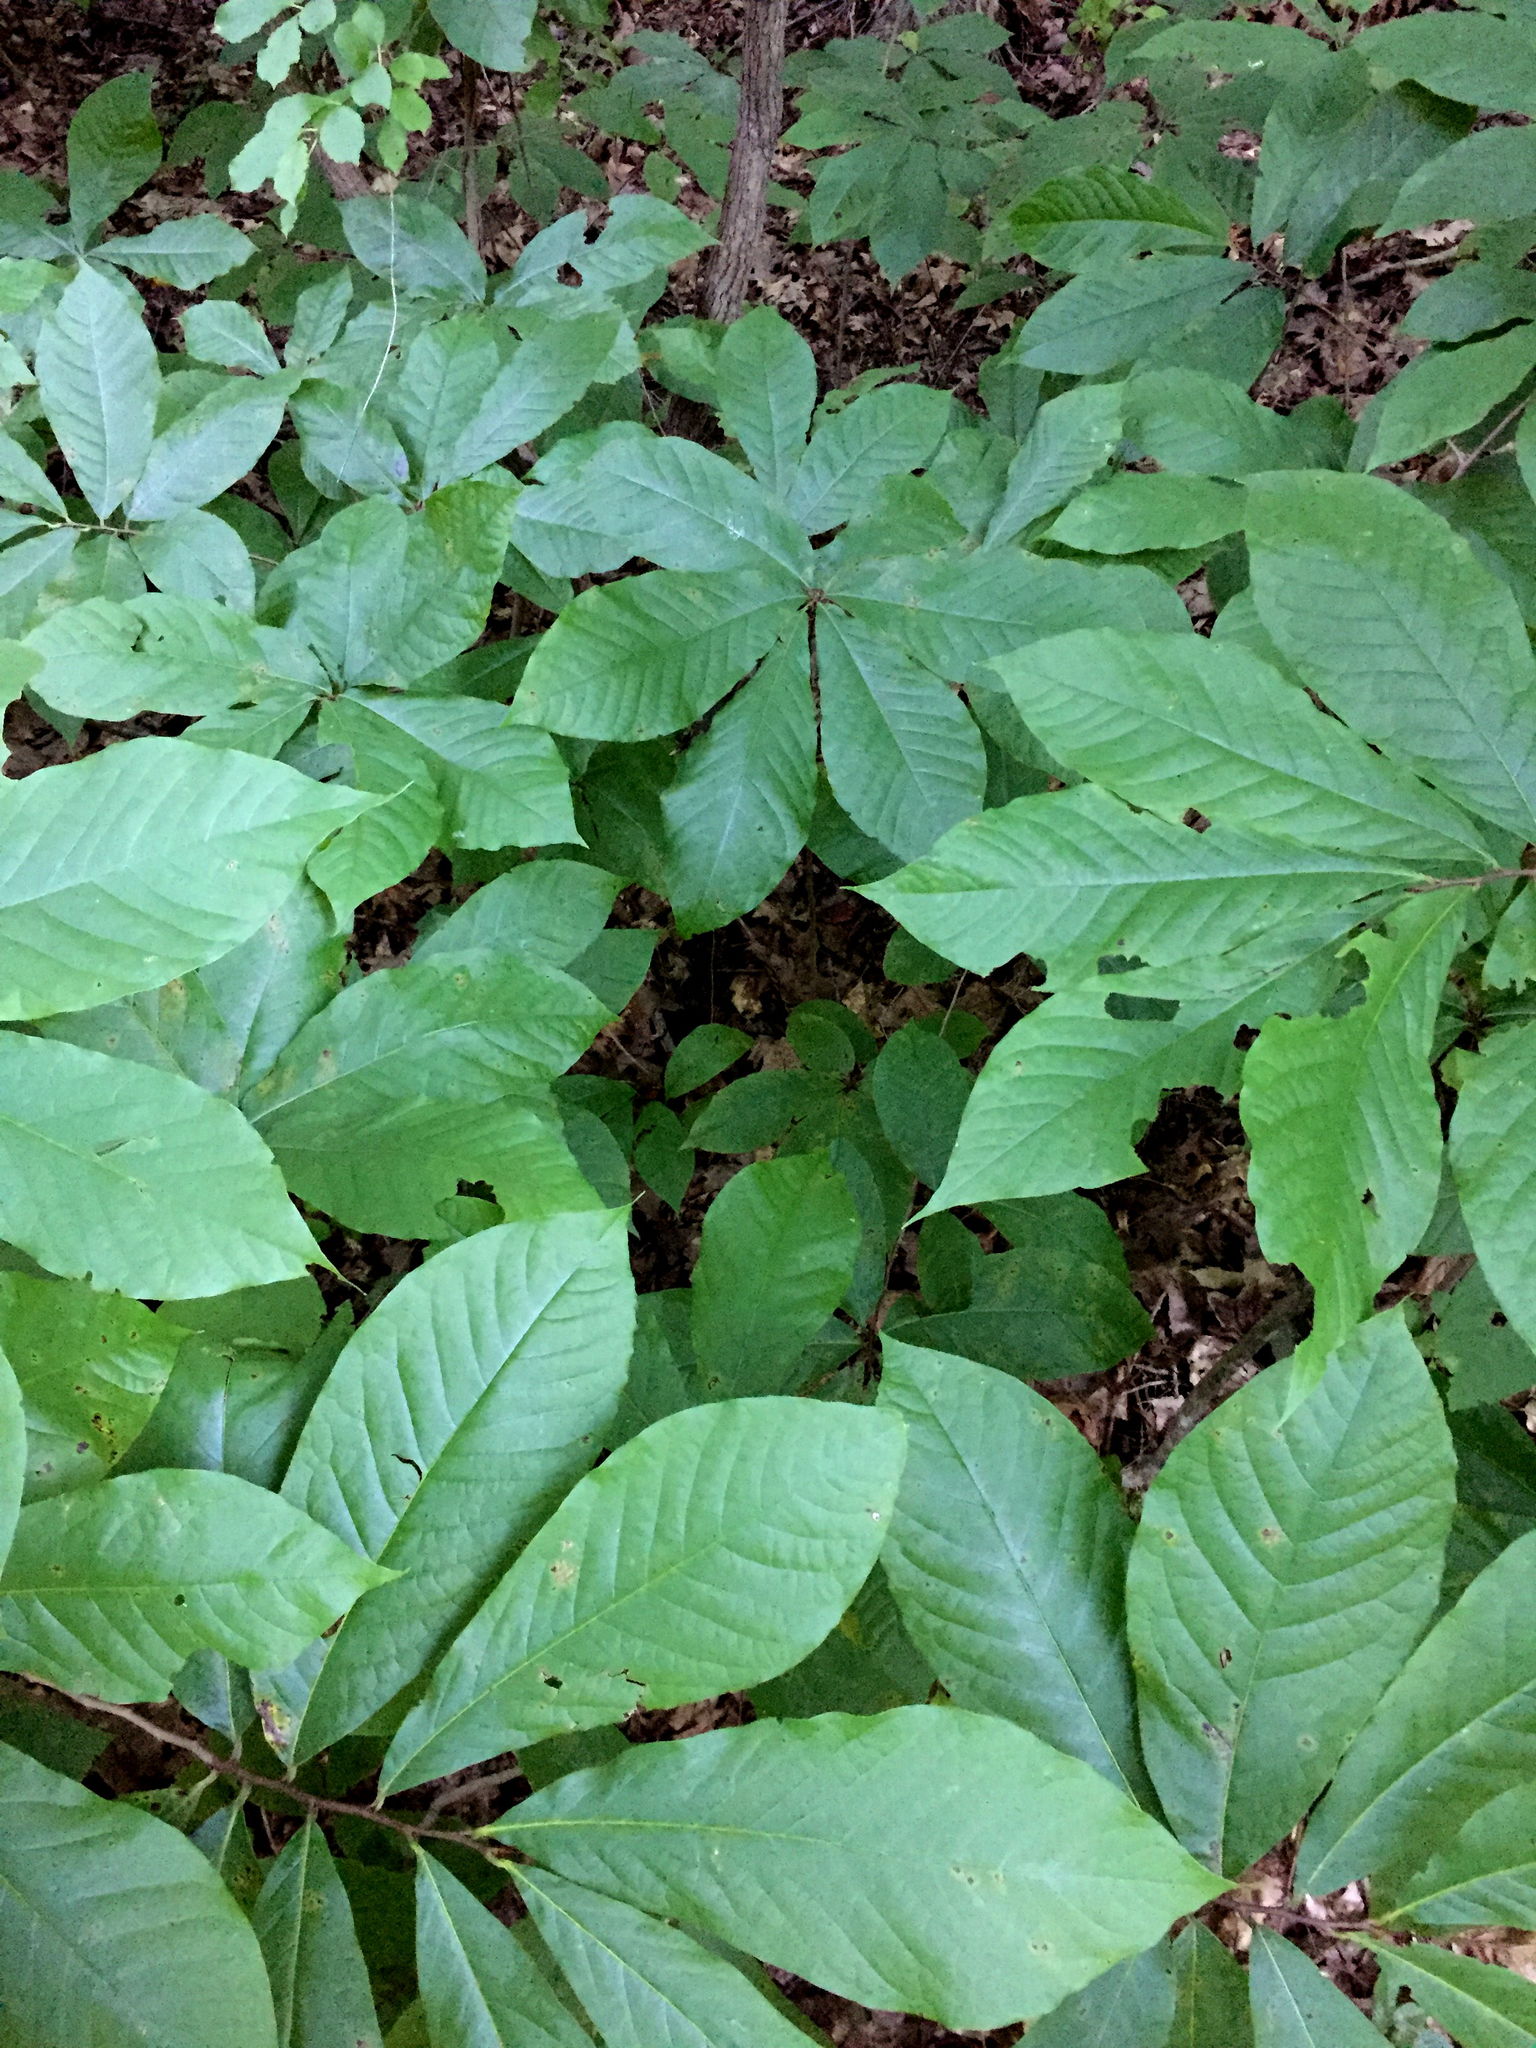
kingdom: Plantae
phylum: Tracheophyta
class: Magnoliopsida
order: Magnoliales
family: Annonaceae
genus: Asimina
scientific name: Asimina triloba
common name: Dog-banana
